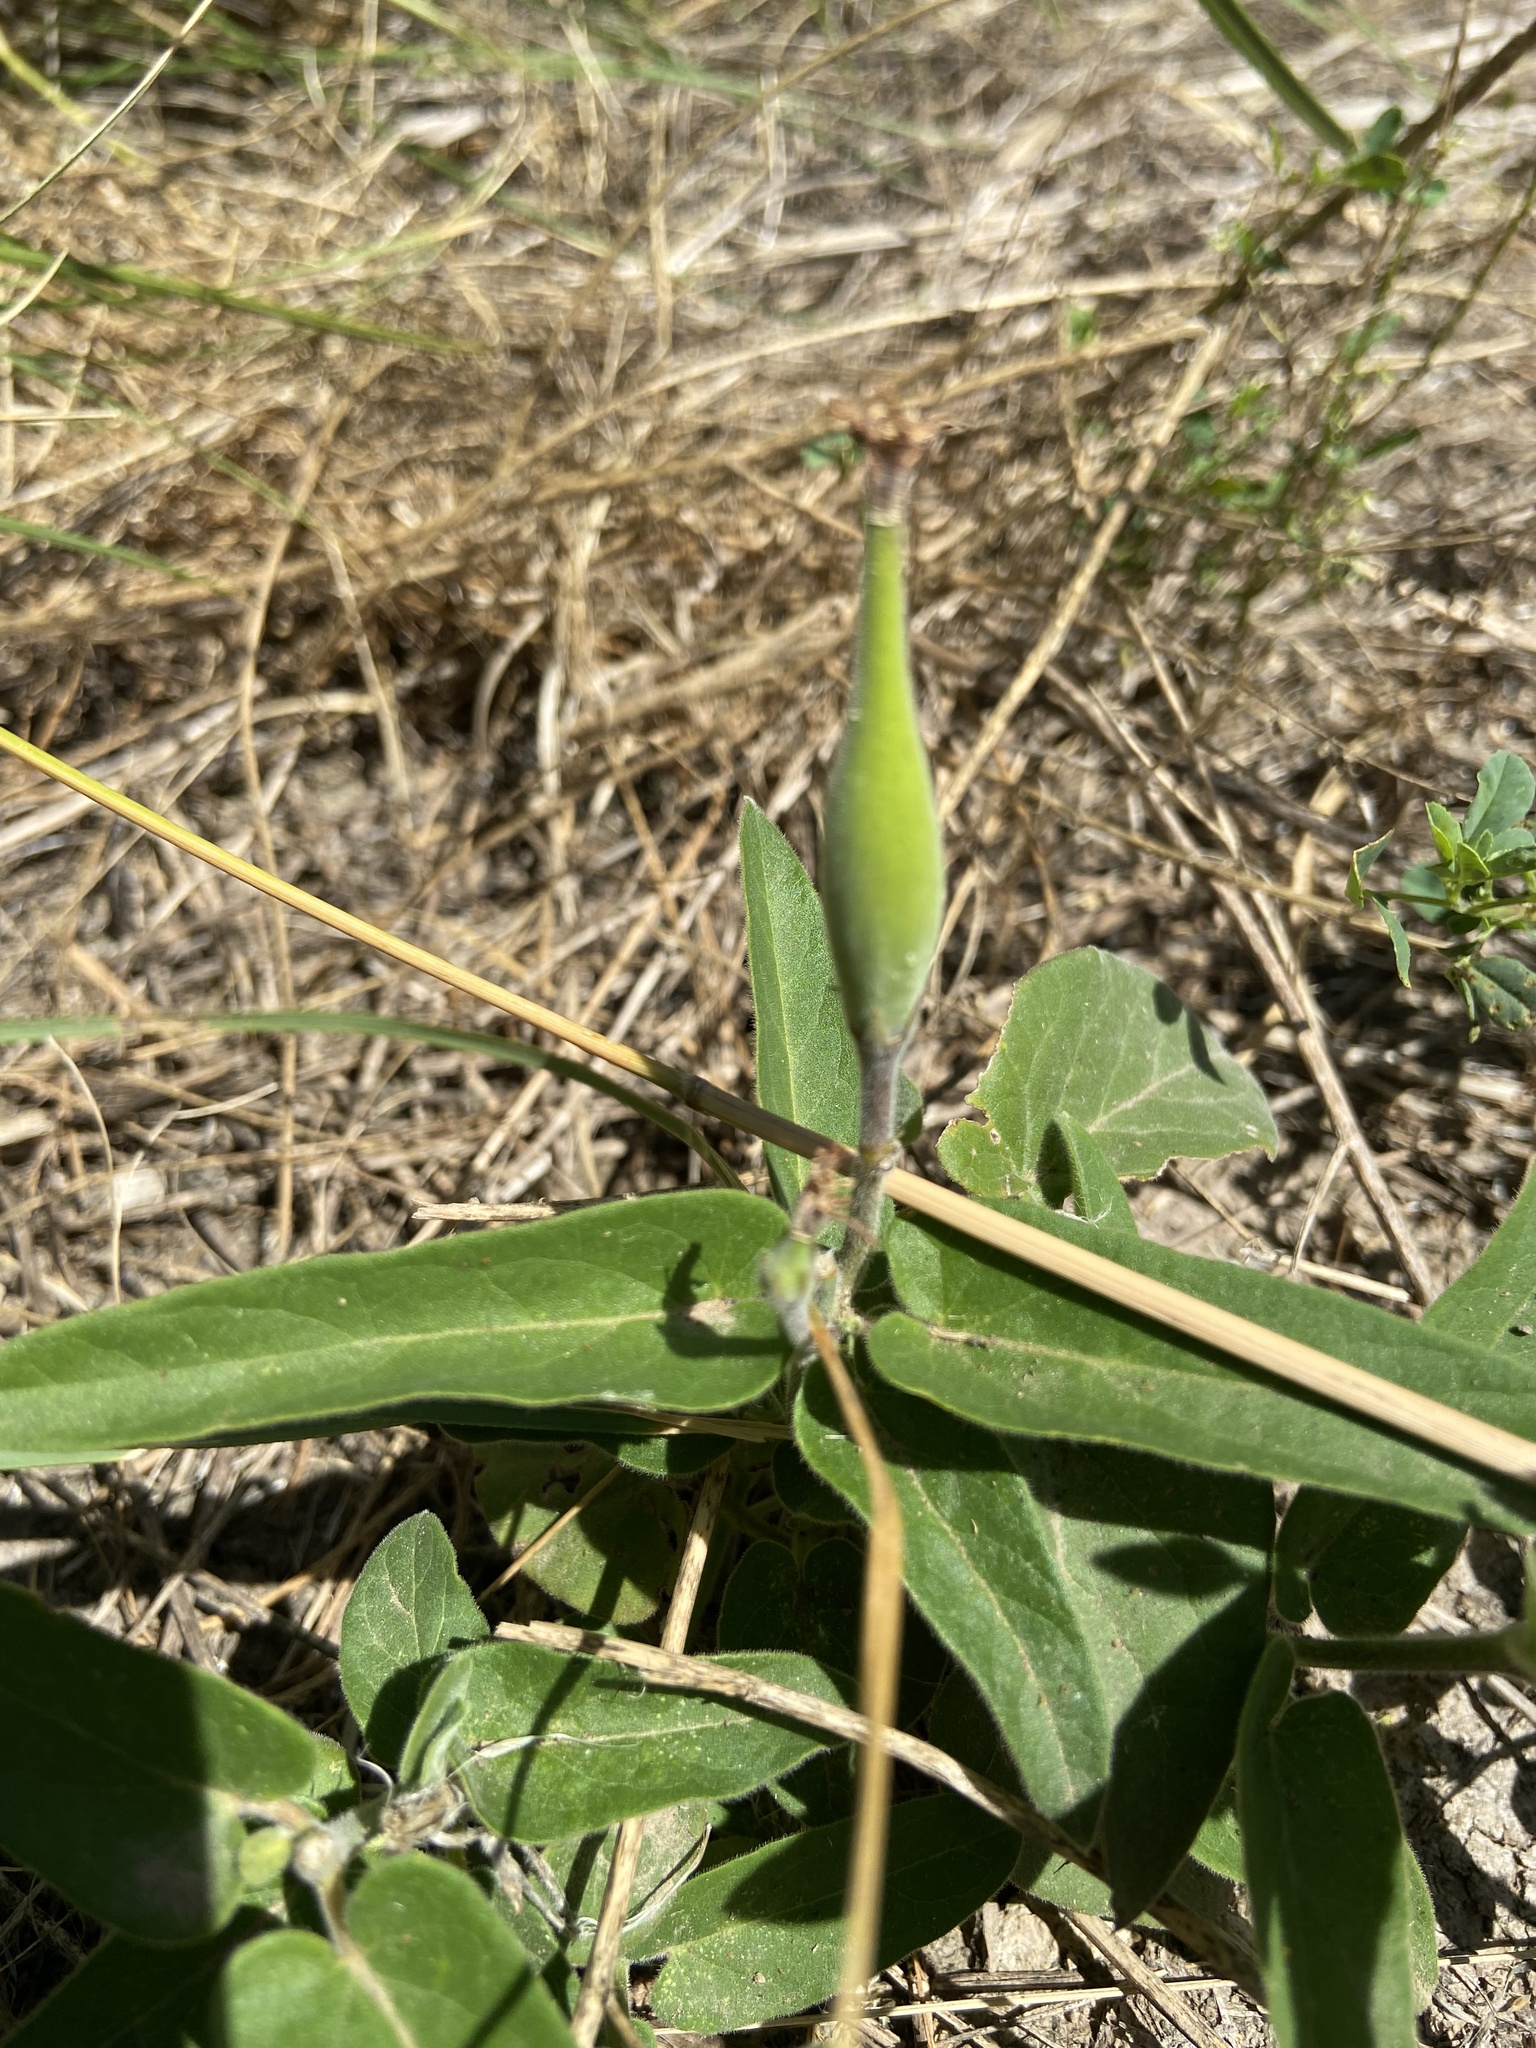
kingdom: Plantae
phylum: Tracheophyta
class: Magnoliopsida
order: Gentianales
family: Apocynaceae
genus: Oxypetalum
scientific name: Oxypetalum solanoides
